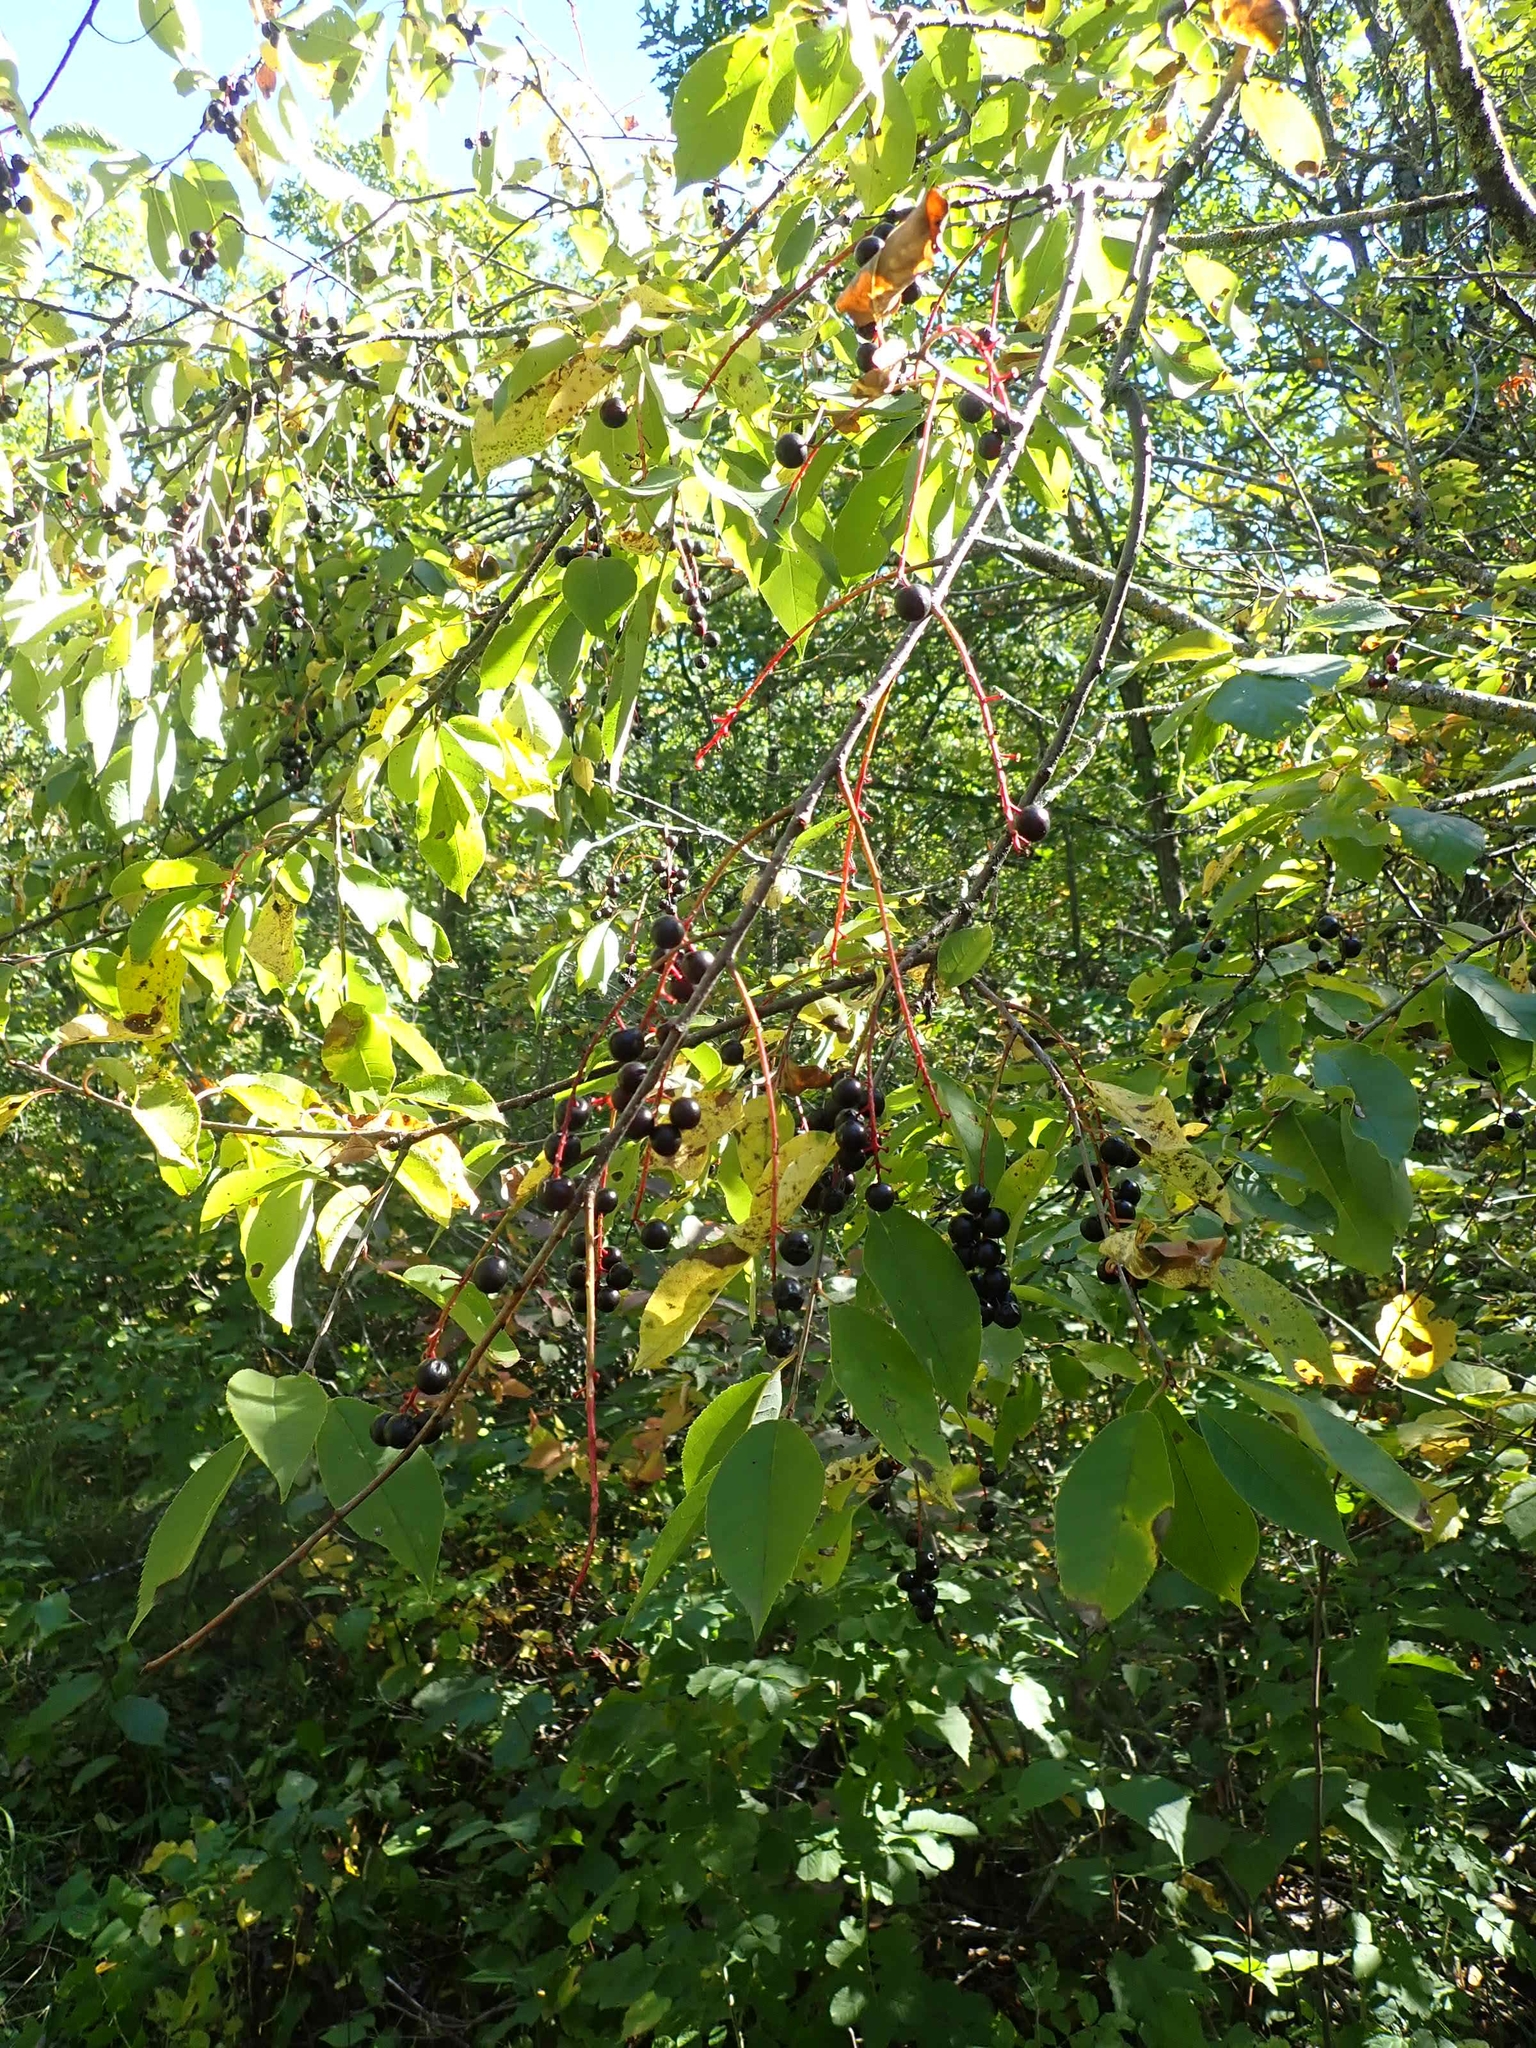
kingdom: Plantae
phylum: Tracheophyta
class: Magnoliopsida
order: Rosales
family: Rosaceae
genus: Prunus
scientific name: Prunus virginiana
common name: Chokecherry
